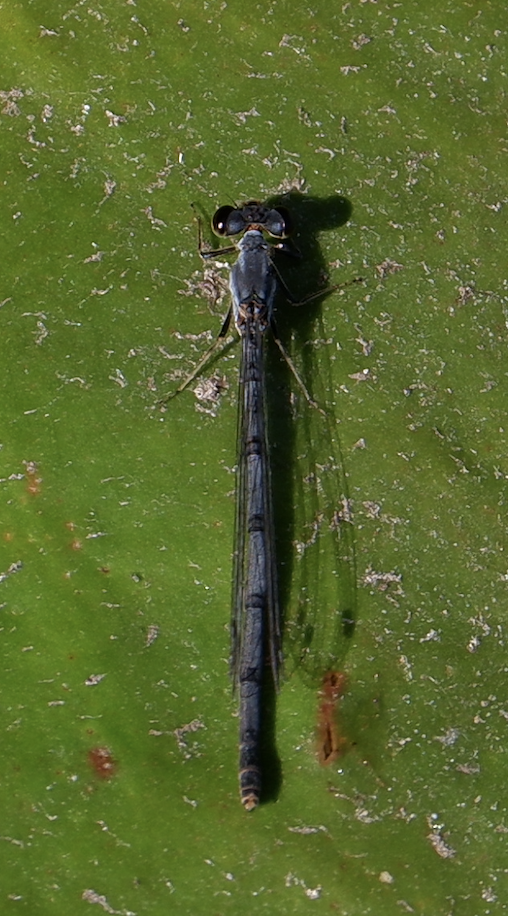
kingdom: Animalia
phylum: Arthropoda
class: Insecta
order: Odonata
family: Coenagrionidae
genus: Ischnura
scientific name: Ischnura posita
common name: Fragile forktail
